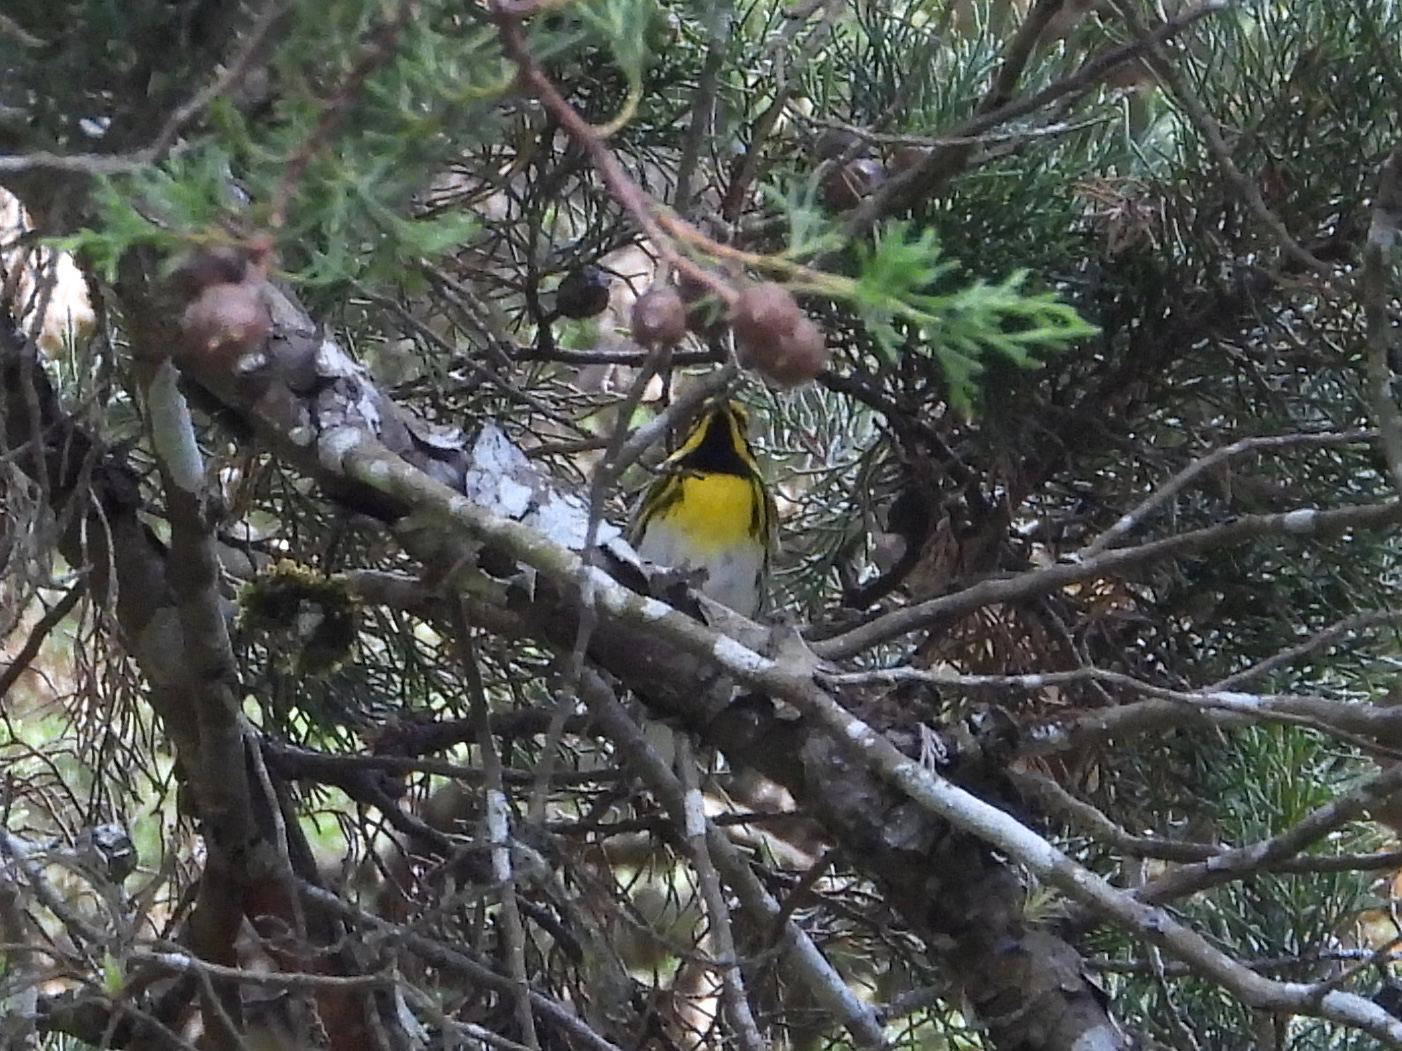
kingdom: Animalia
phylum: Chordata
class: Aves
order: Passeriformes
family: Parulidae
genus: Setophaga
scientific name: Setophaga townsendi
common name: Townsend's warbler
